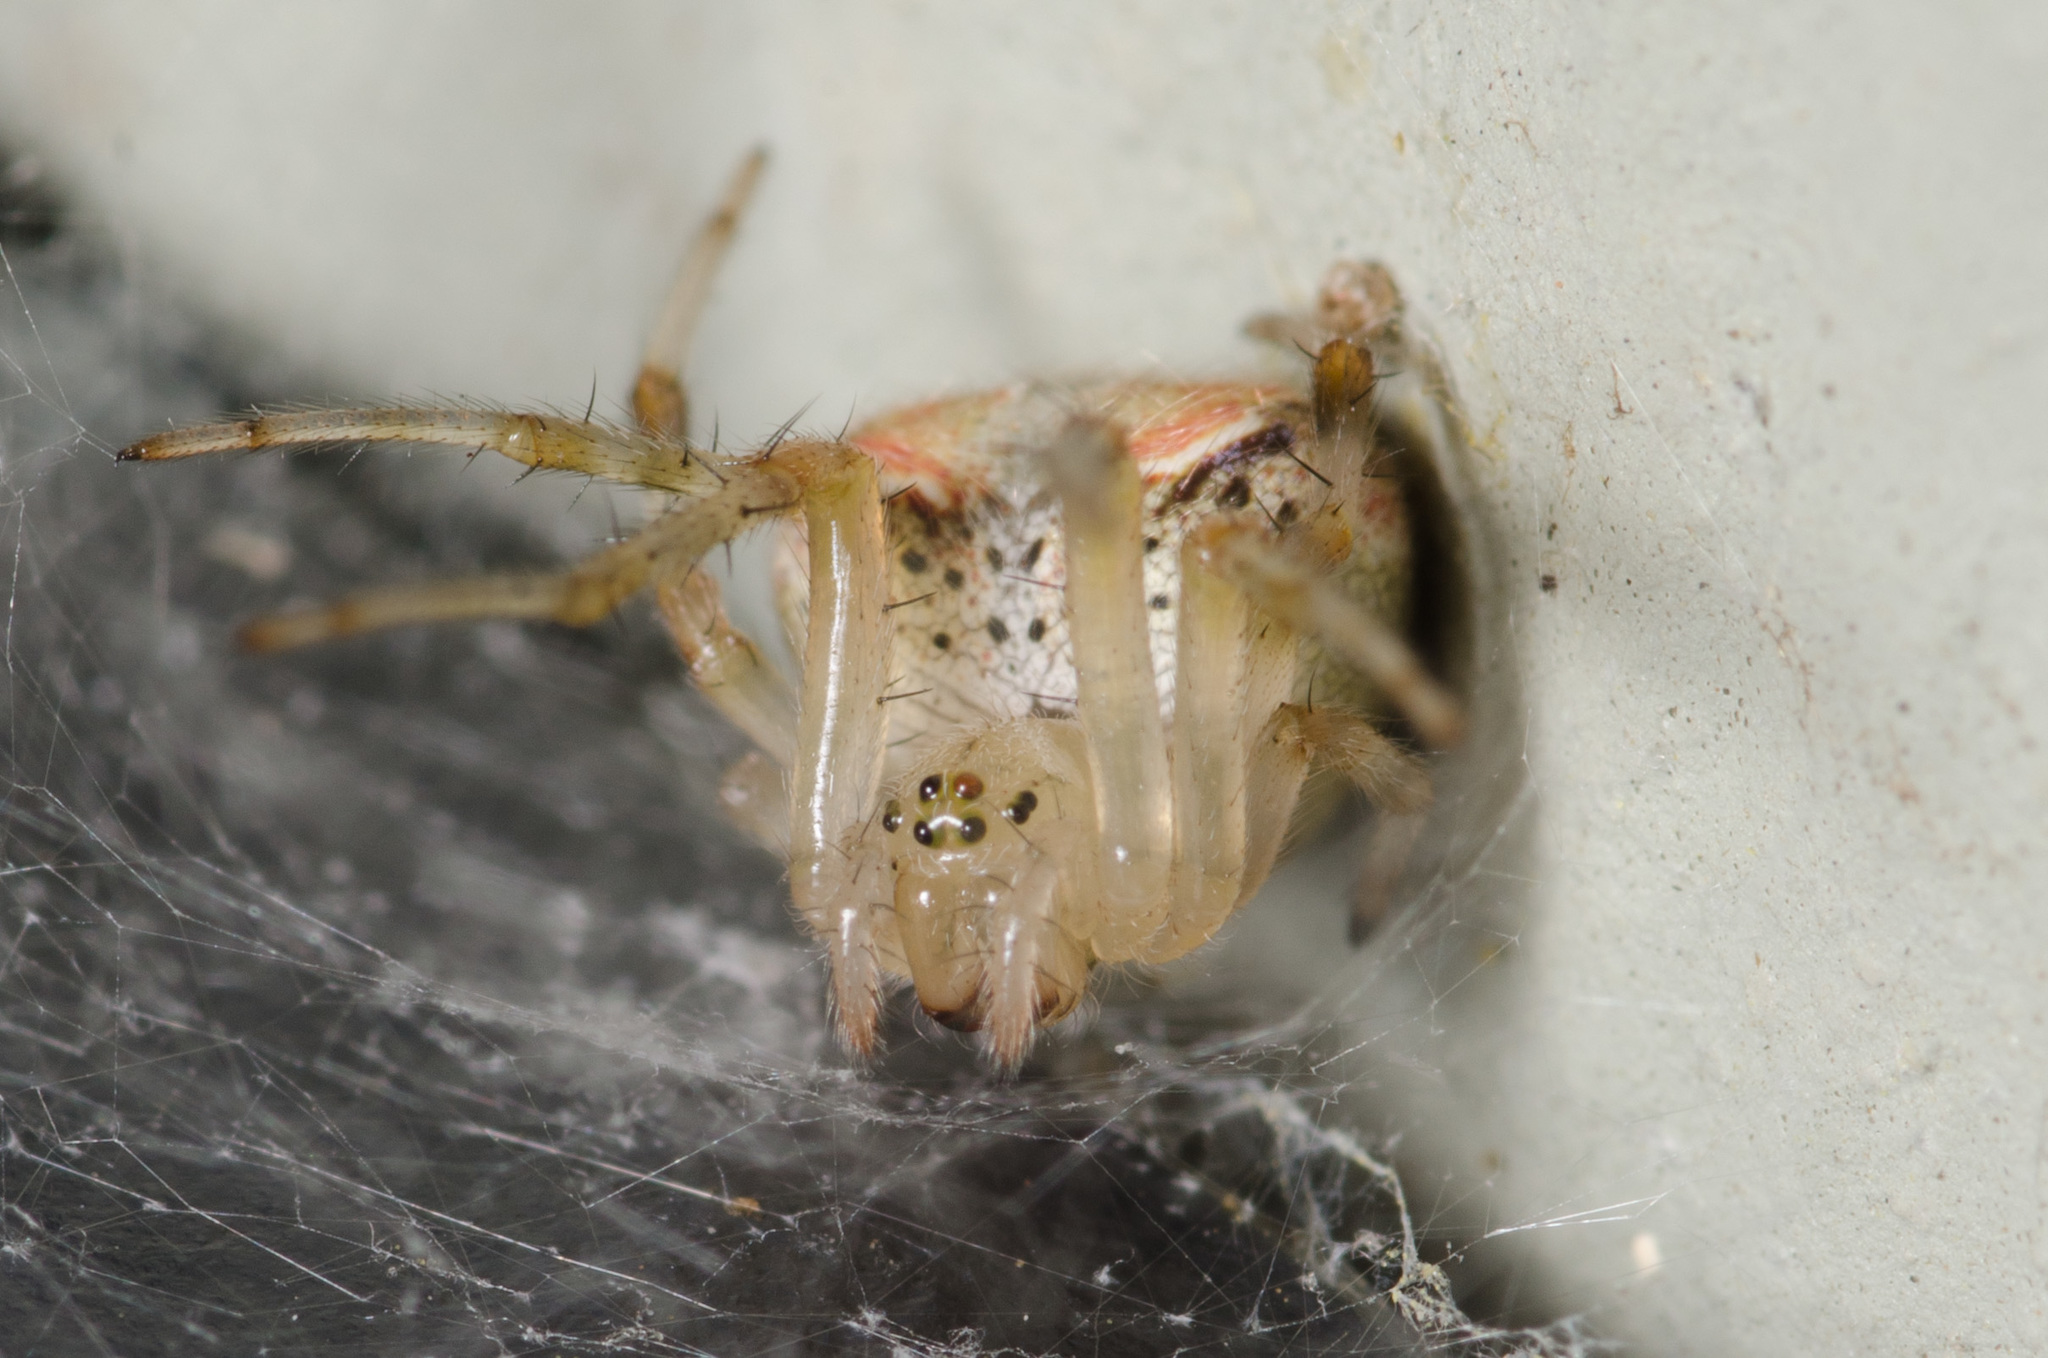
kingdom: Animalia
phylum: Arthropoda
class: Arachnida
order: Araneae
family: Araneidae
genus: Araneus
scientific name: Araneus pegnia
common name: Orb weavers
